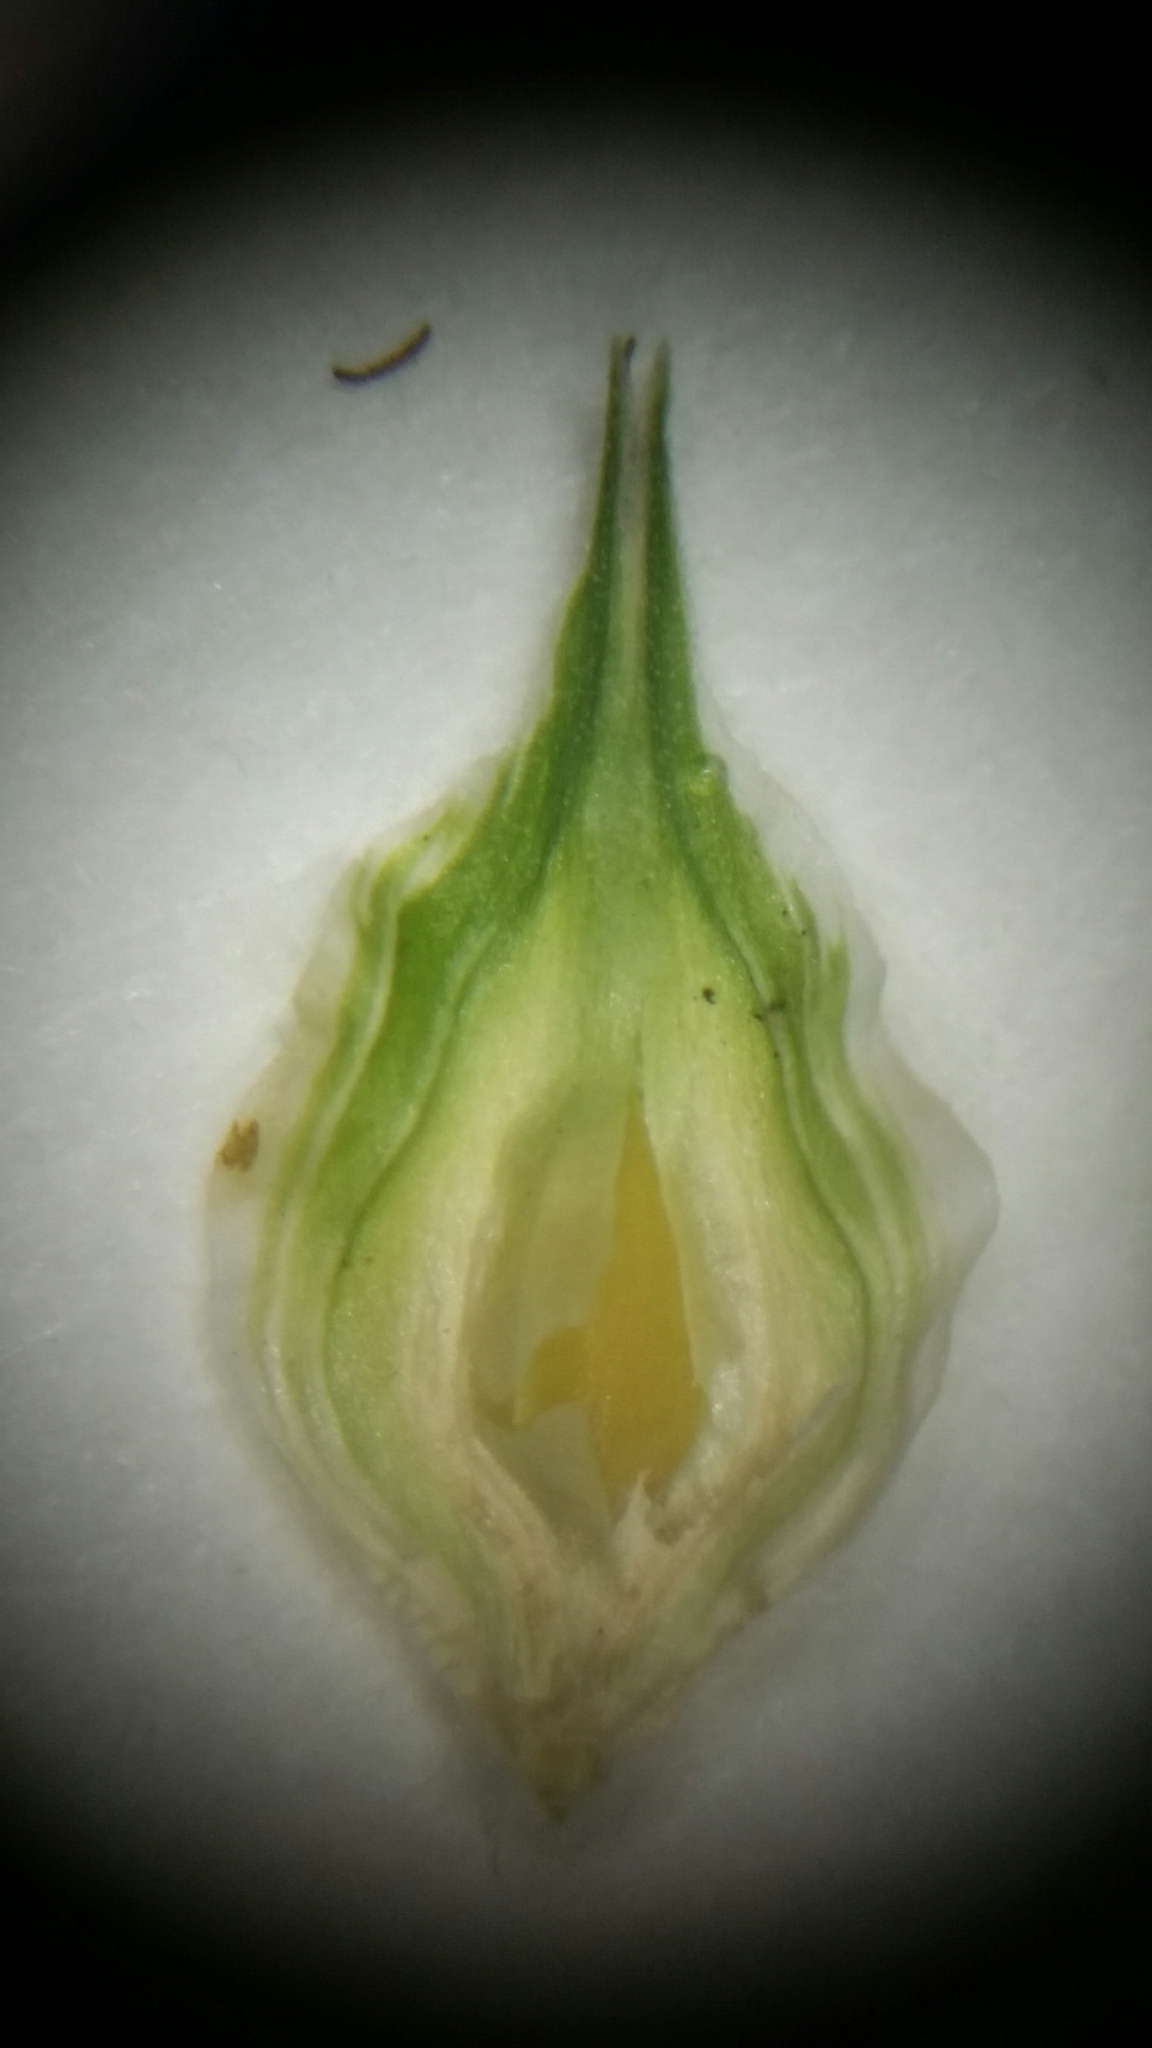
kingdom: Plantae
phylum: Tracheophyta
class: Liliopsida
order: Poales
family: Cyperaceae
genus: Carex
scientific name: Carex longii
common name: Long's sedge
